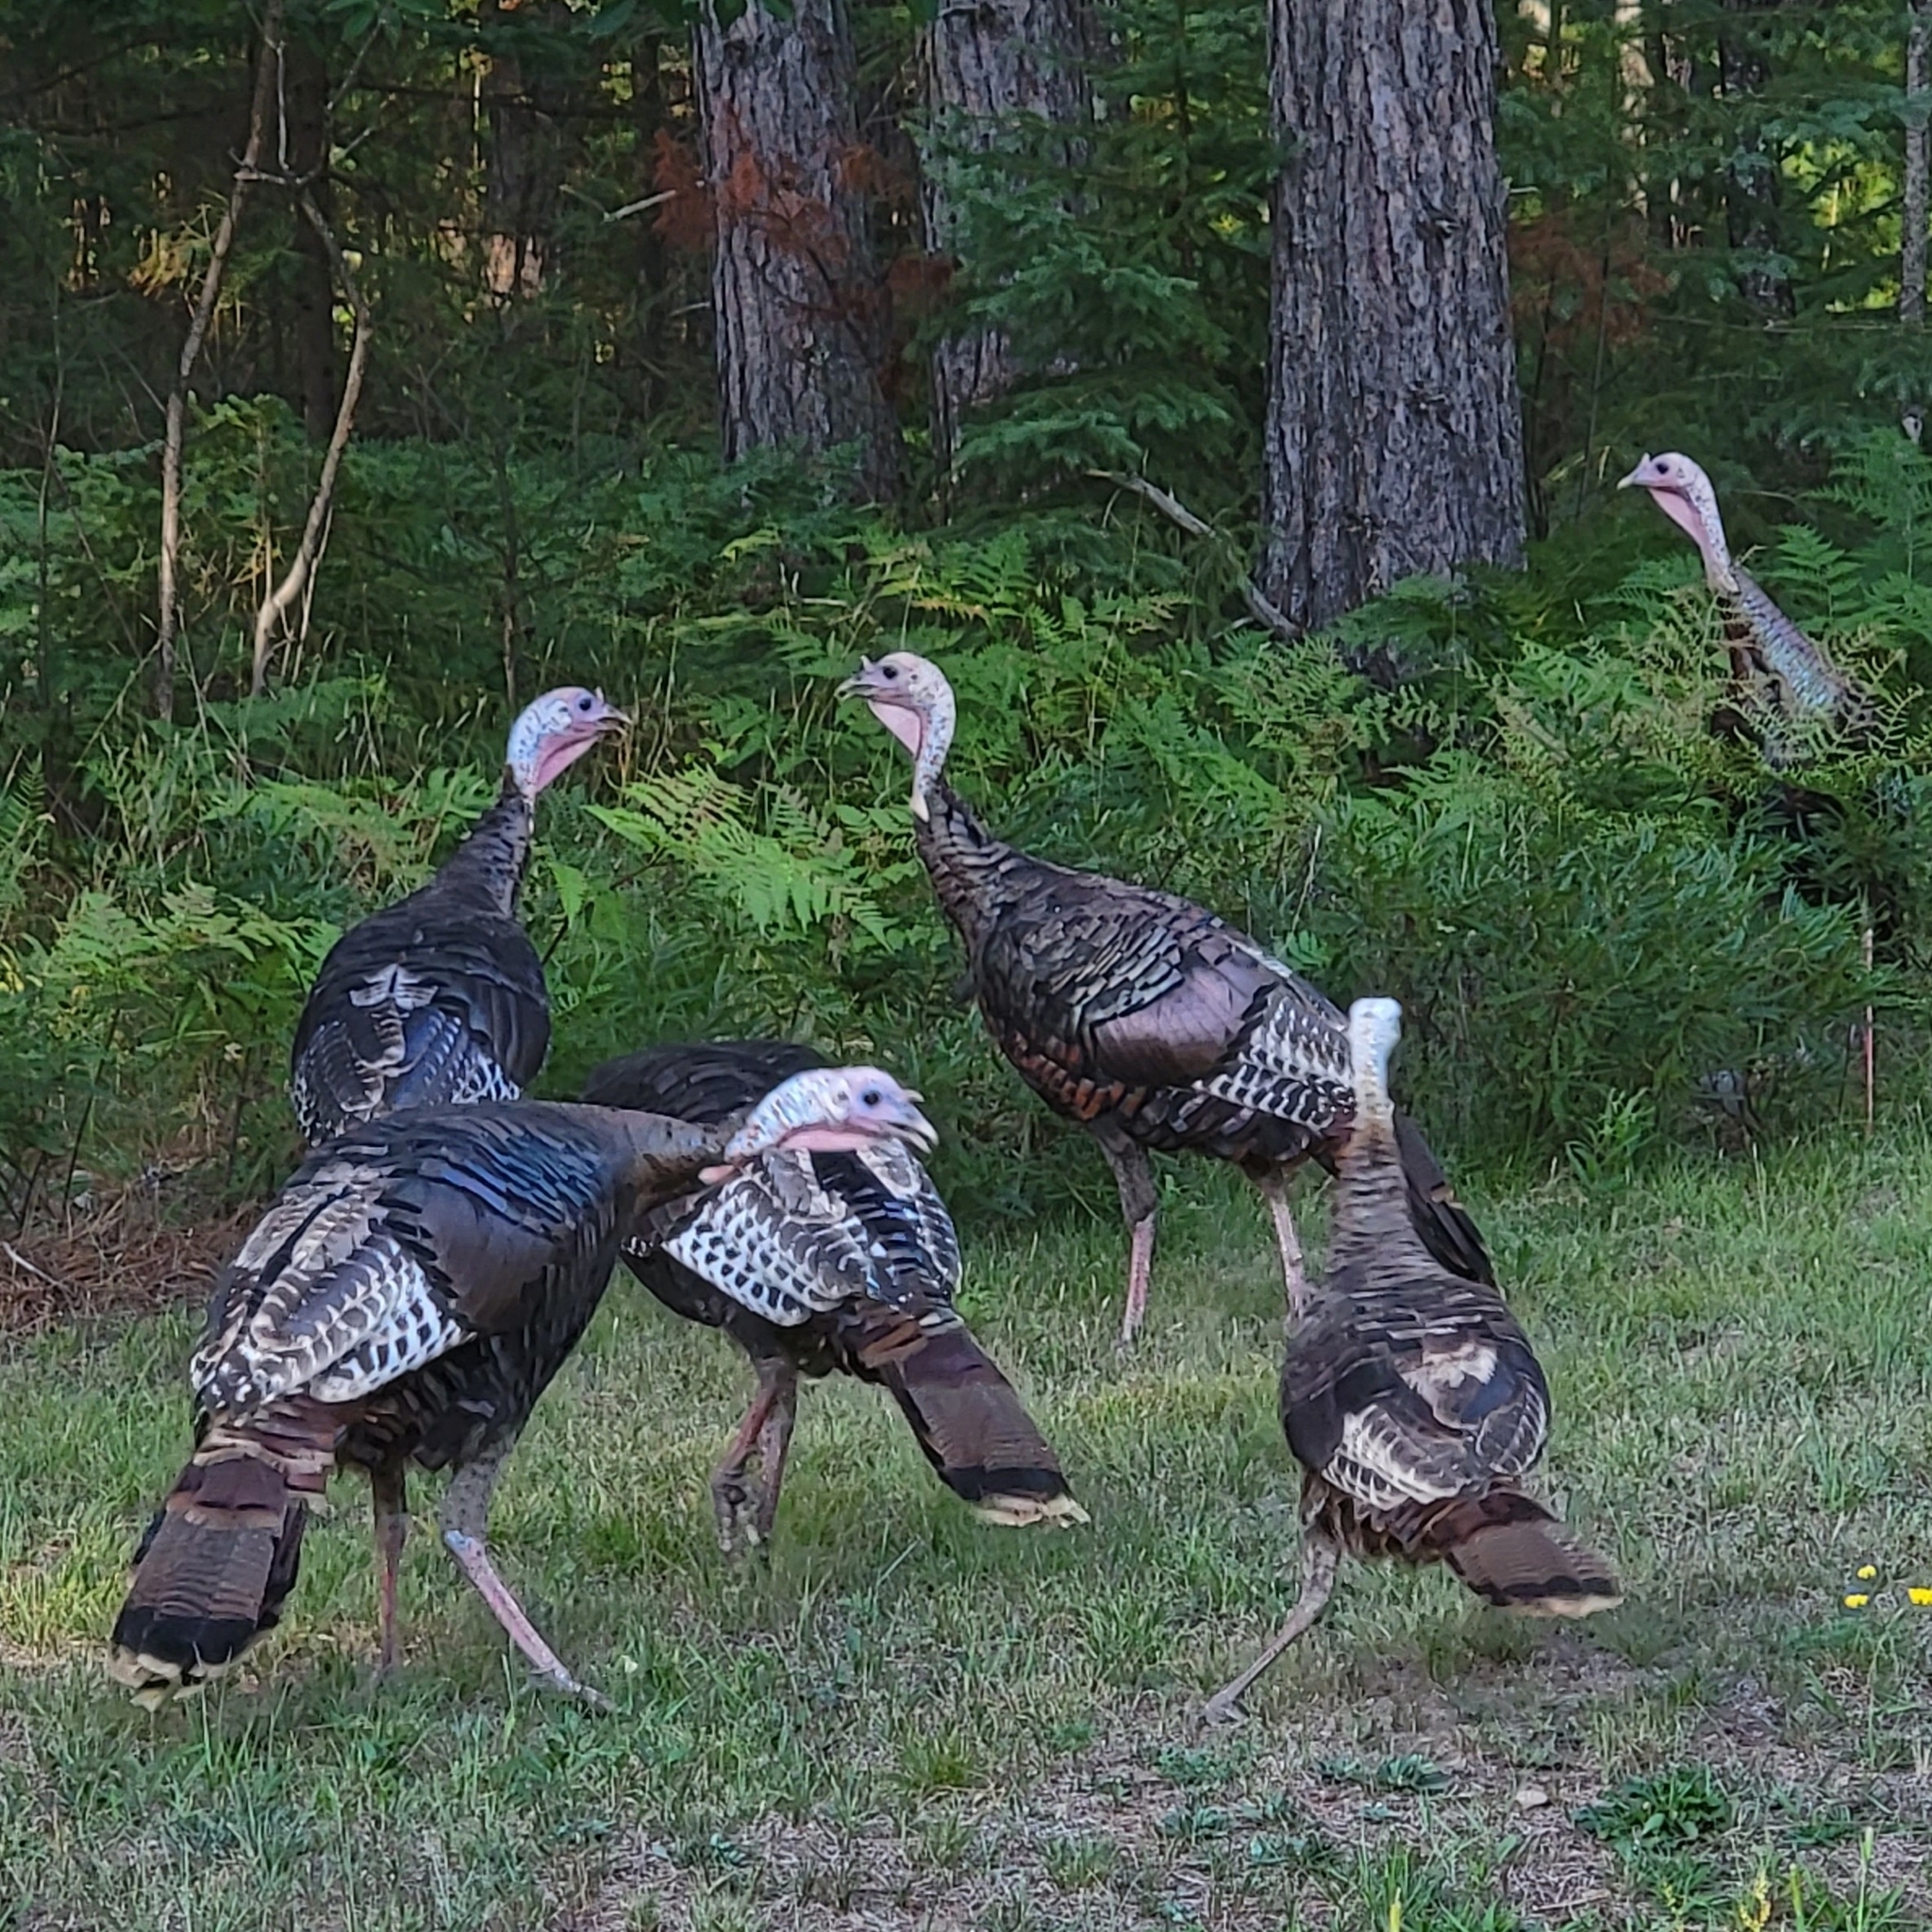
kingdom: Animalia
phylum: Chordata
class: Aves
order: Galliformes
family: Phasianidae
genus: Meleagris
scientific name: Meleagris gallopavo
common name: Wild turkey
